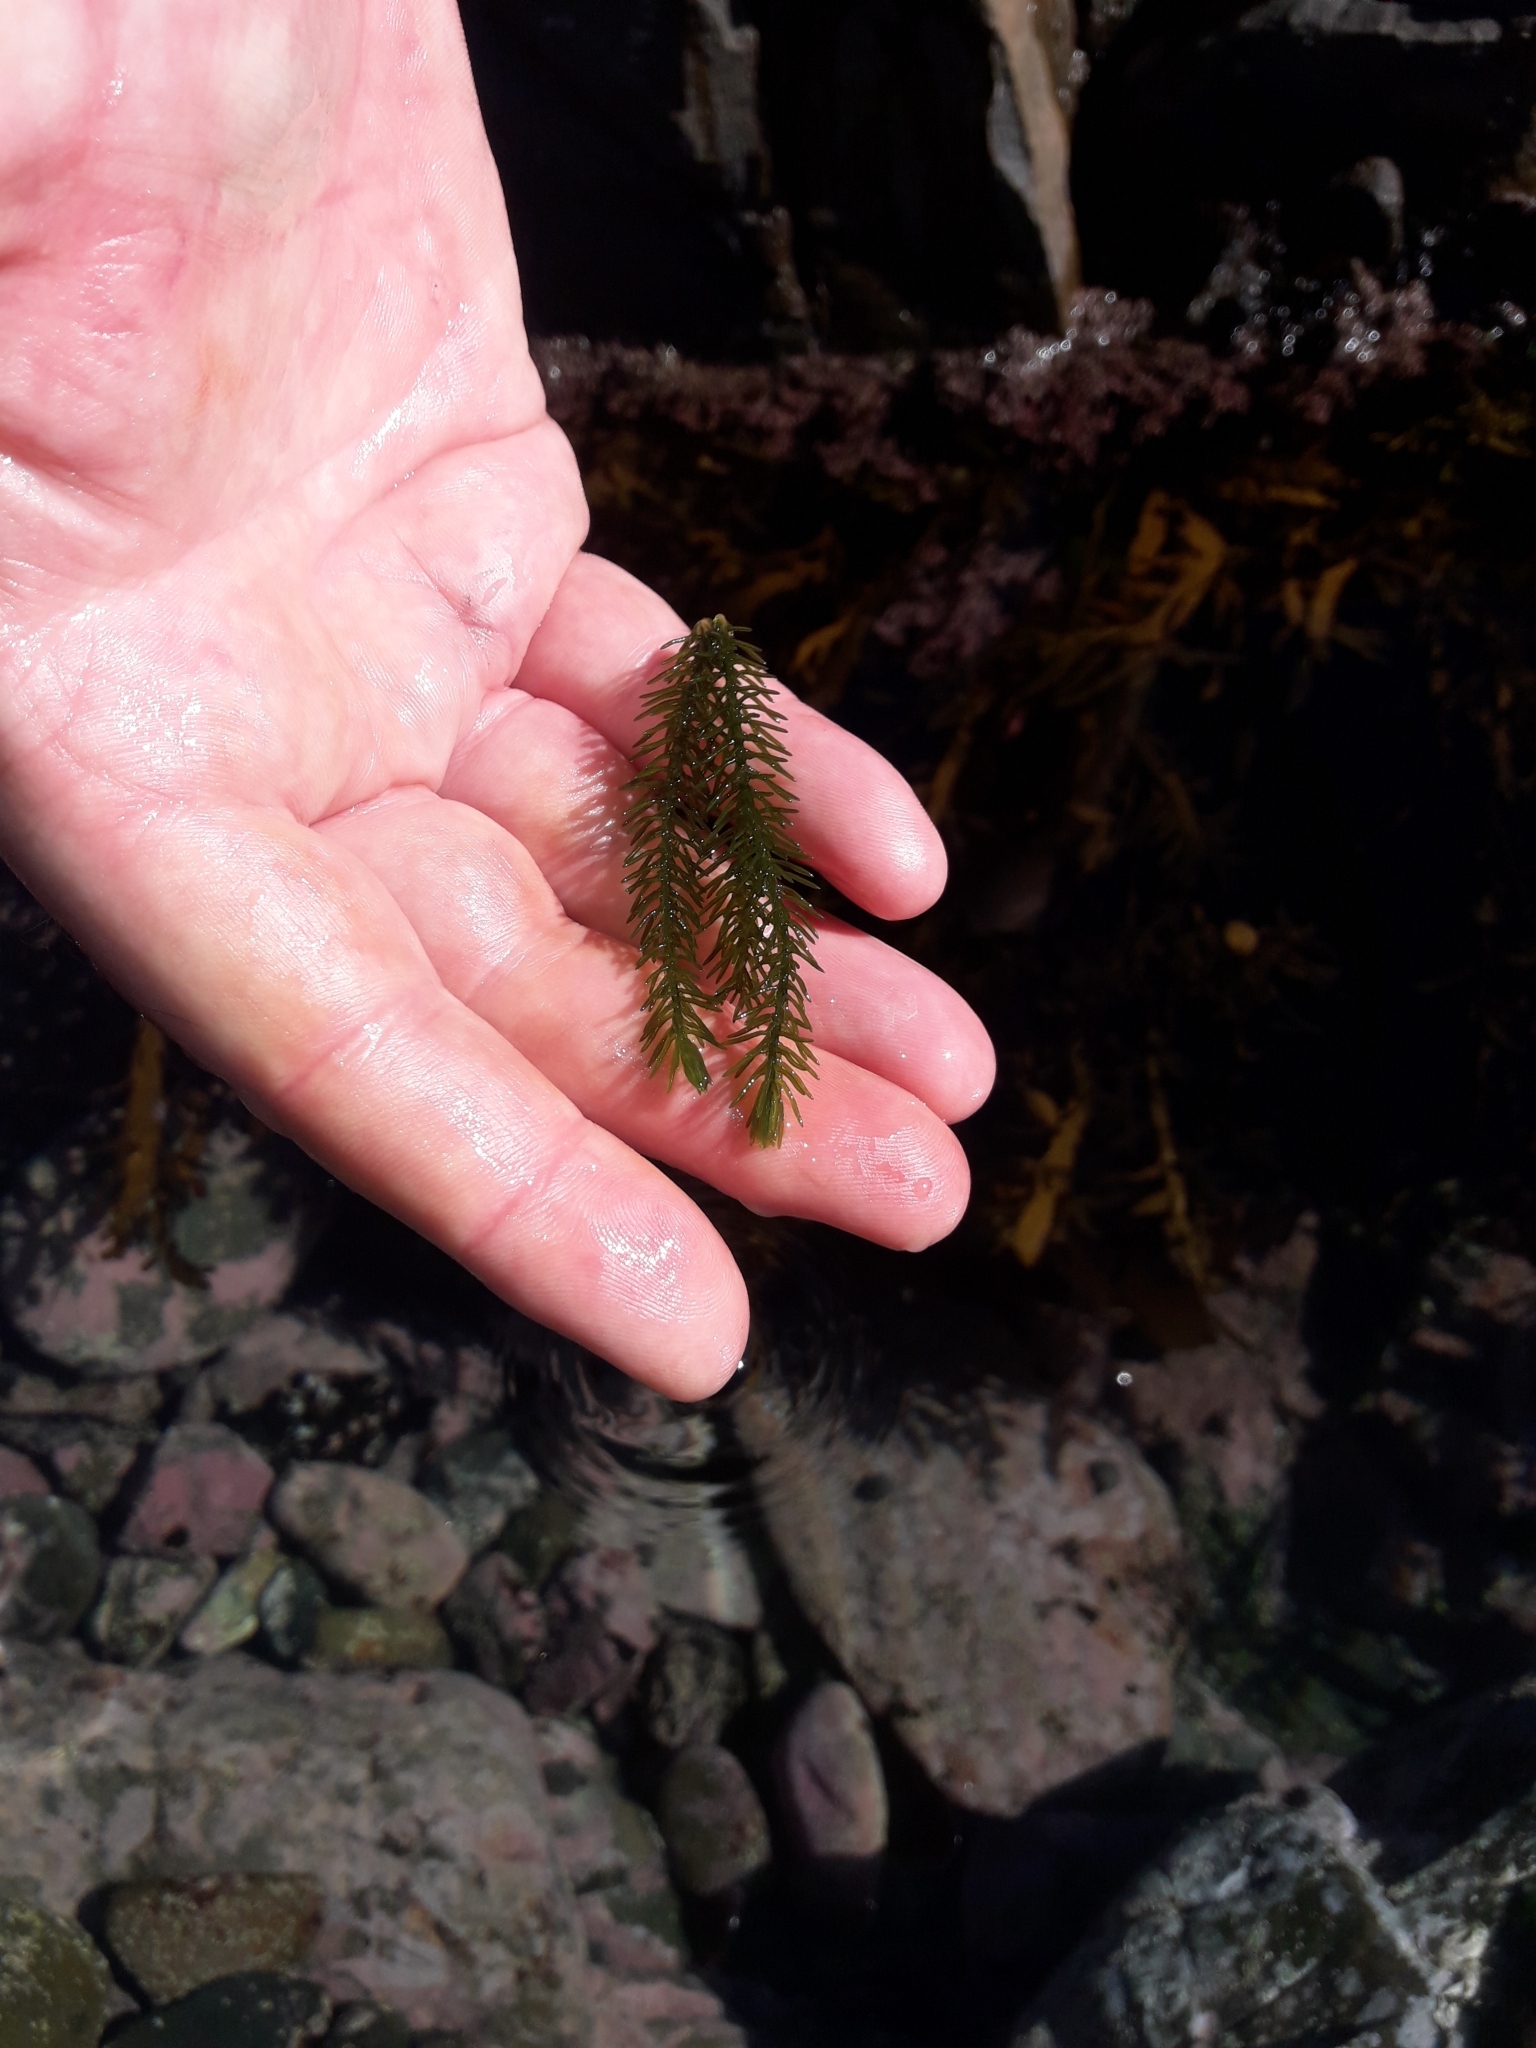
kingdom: Plantae
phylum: Chlorophyta
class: Ulvophyceae
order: Bryopsidales
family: Caulerpaceae
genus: Caulerpa
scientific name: Caulerpa brownii
